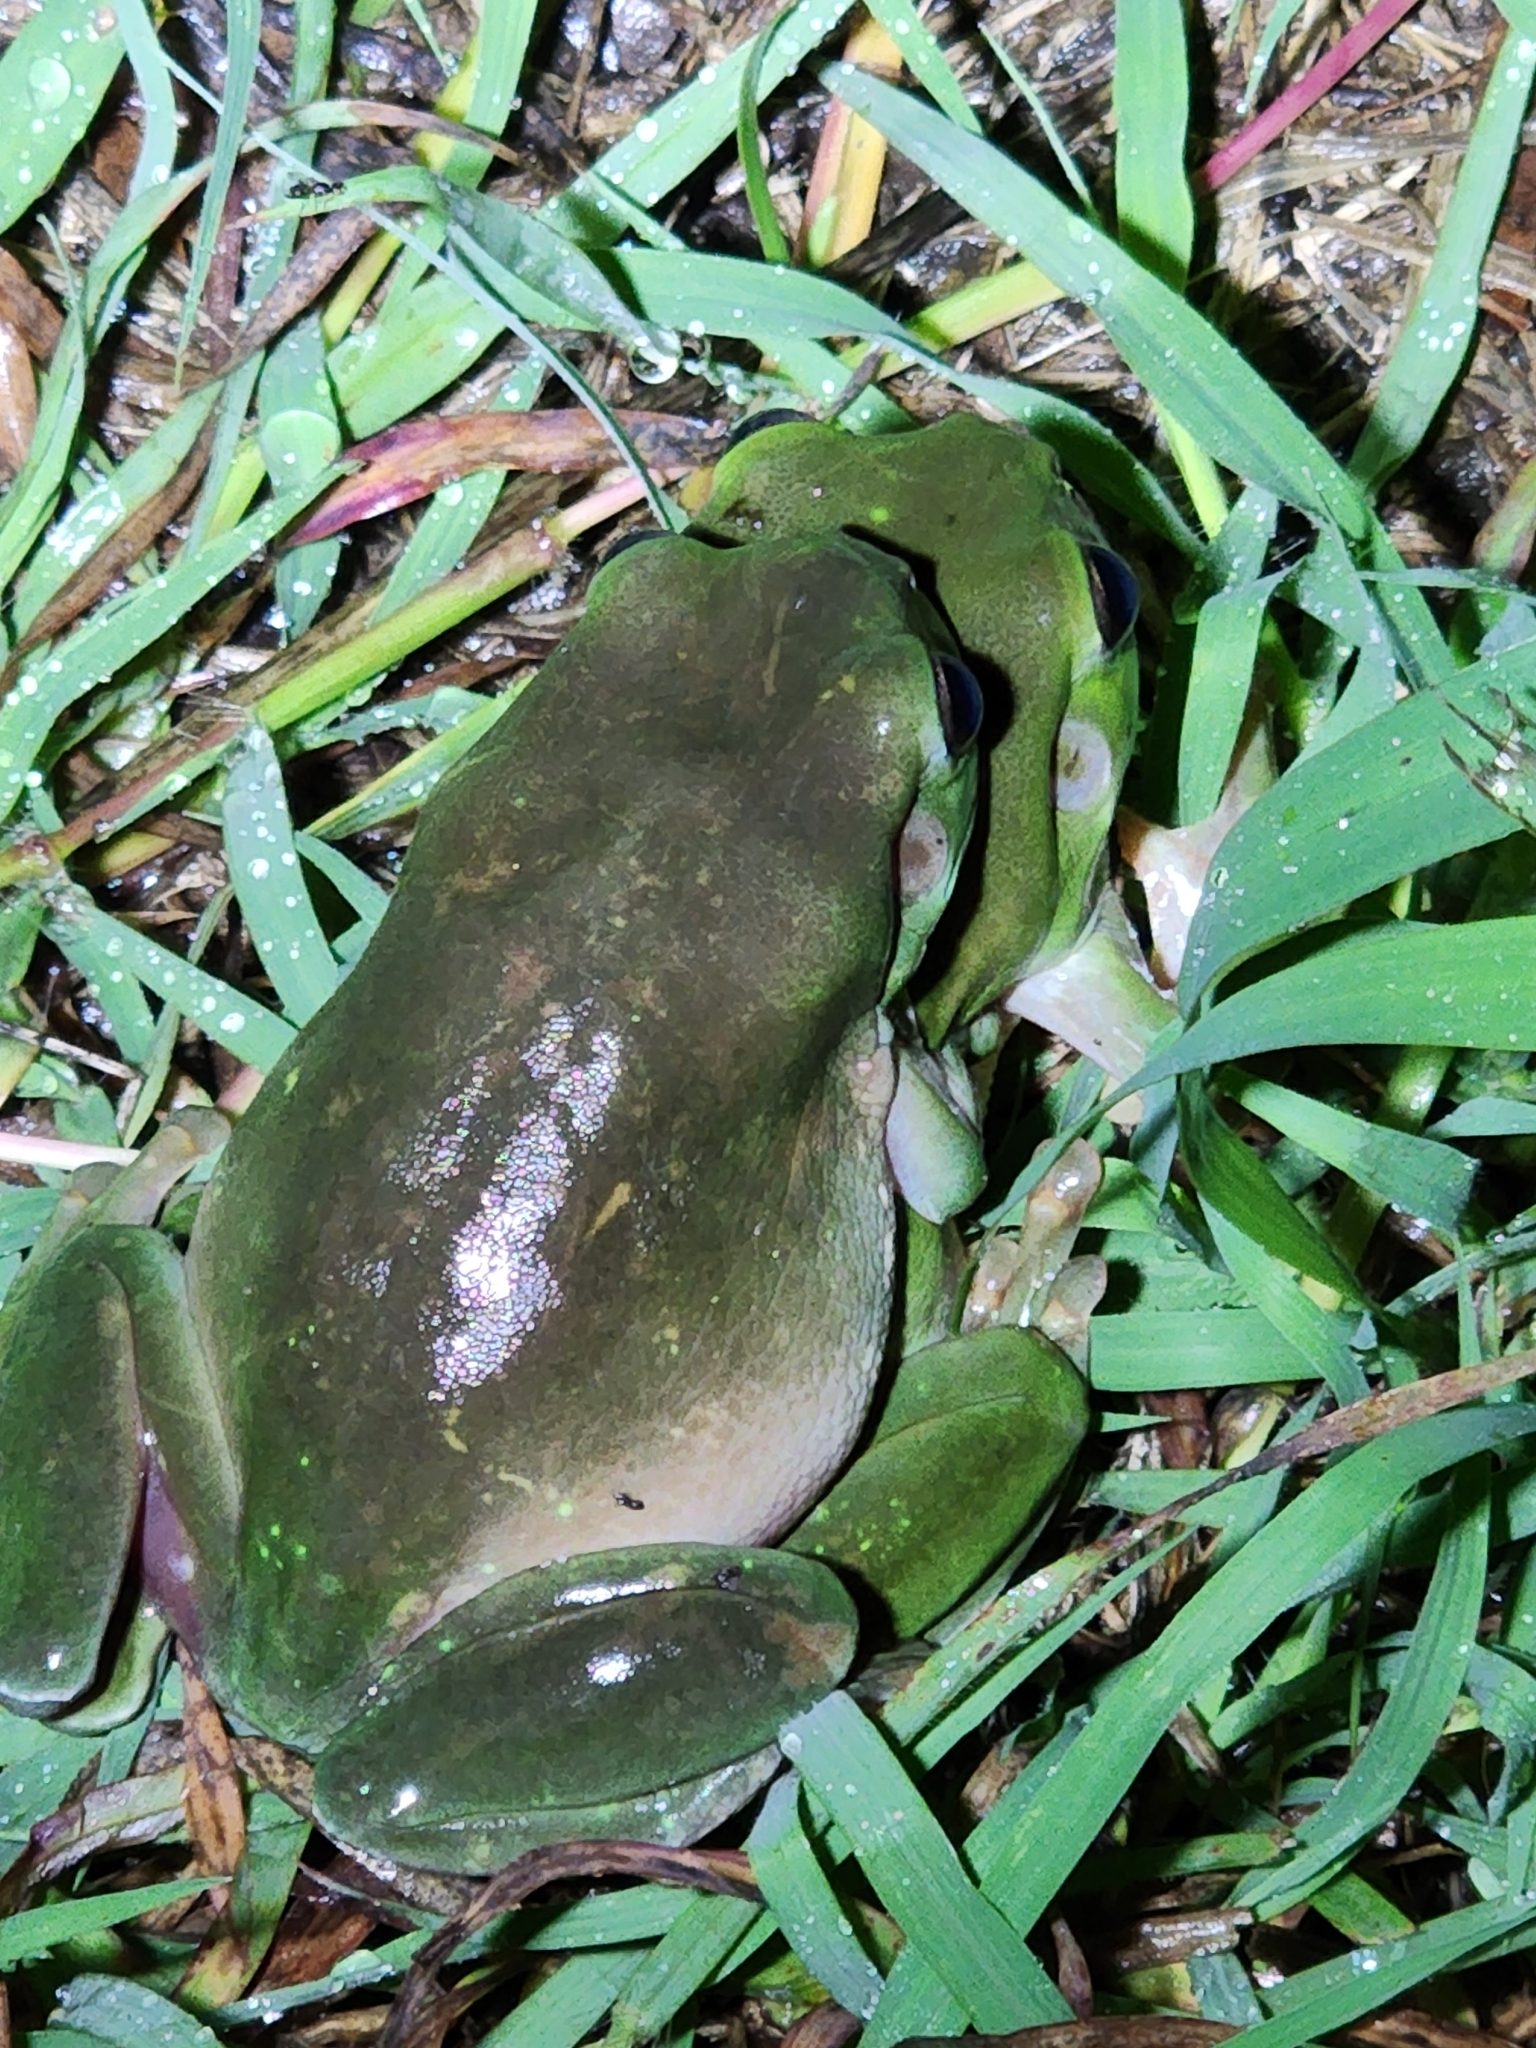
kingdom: Animalia
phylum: Chordata
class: Amphibia
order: Anura
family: Pelodryadidae
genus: Ranoidea
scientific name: Ranoidea caerulea
